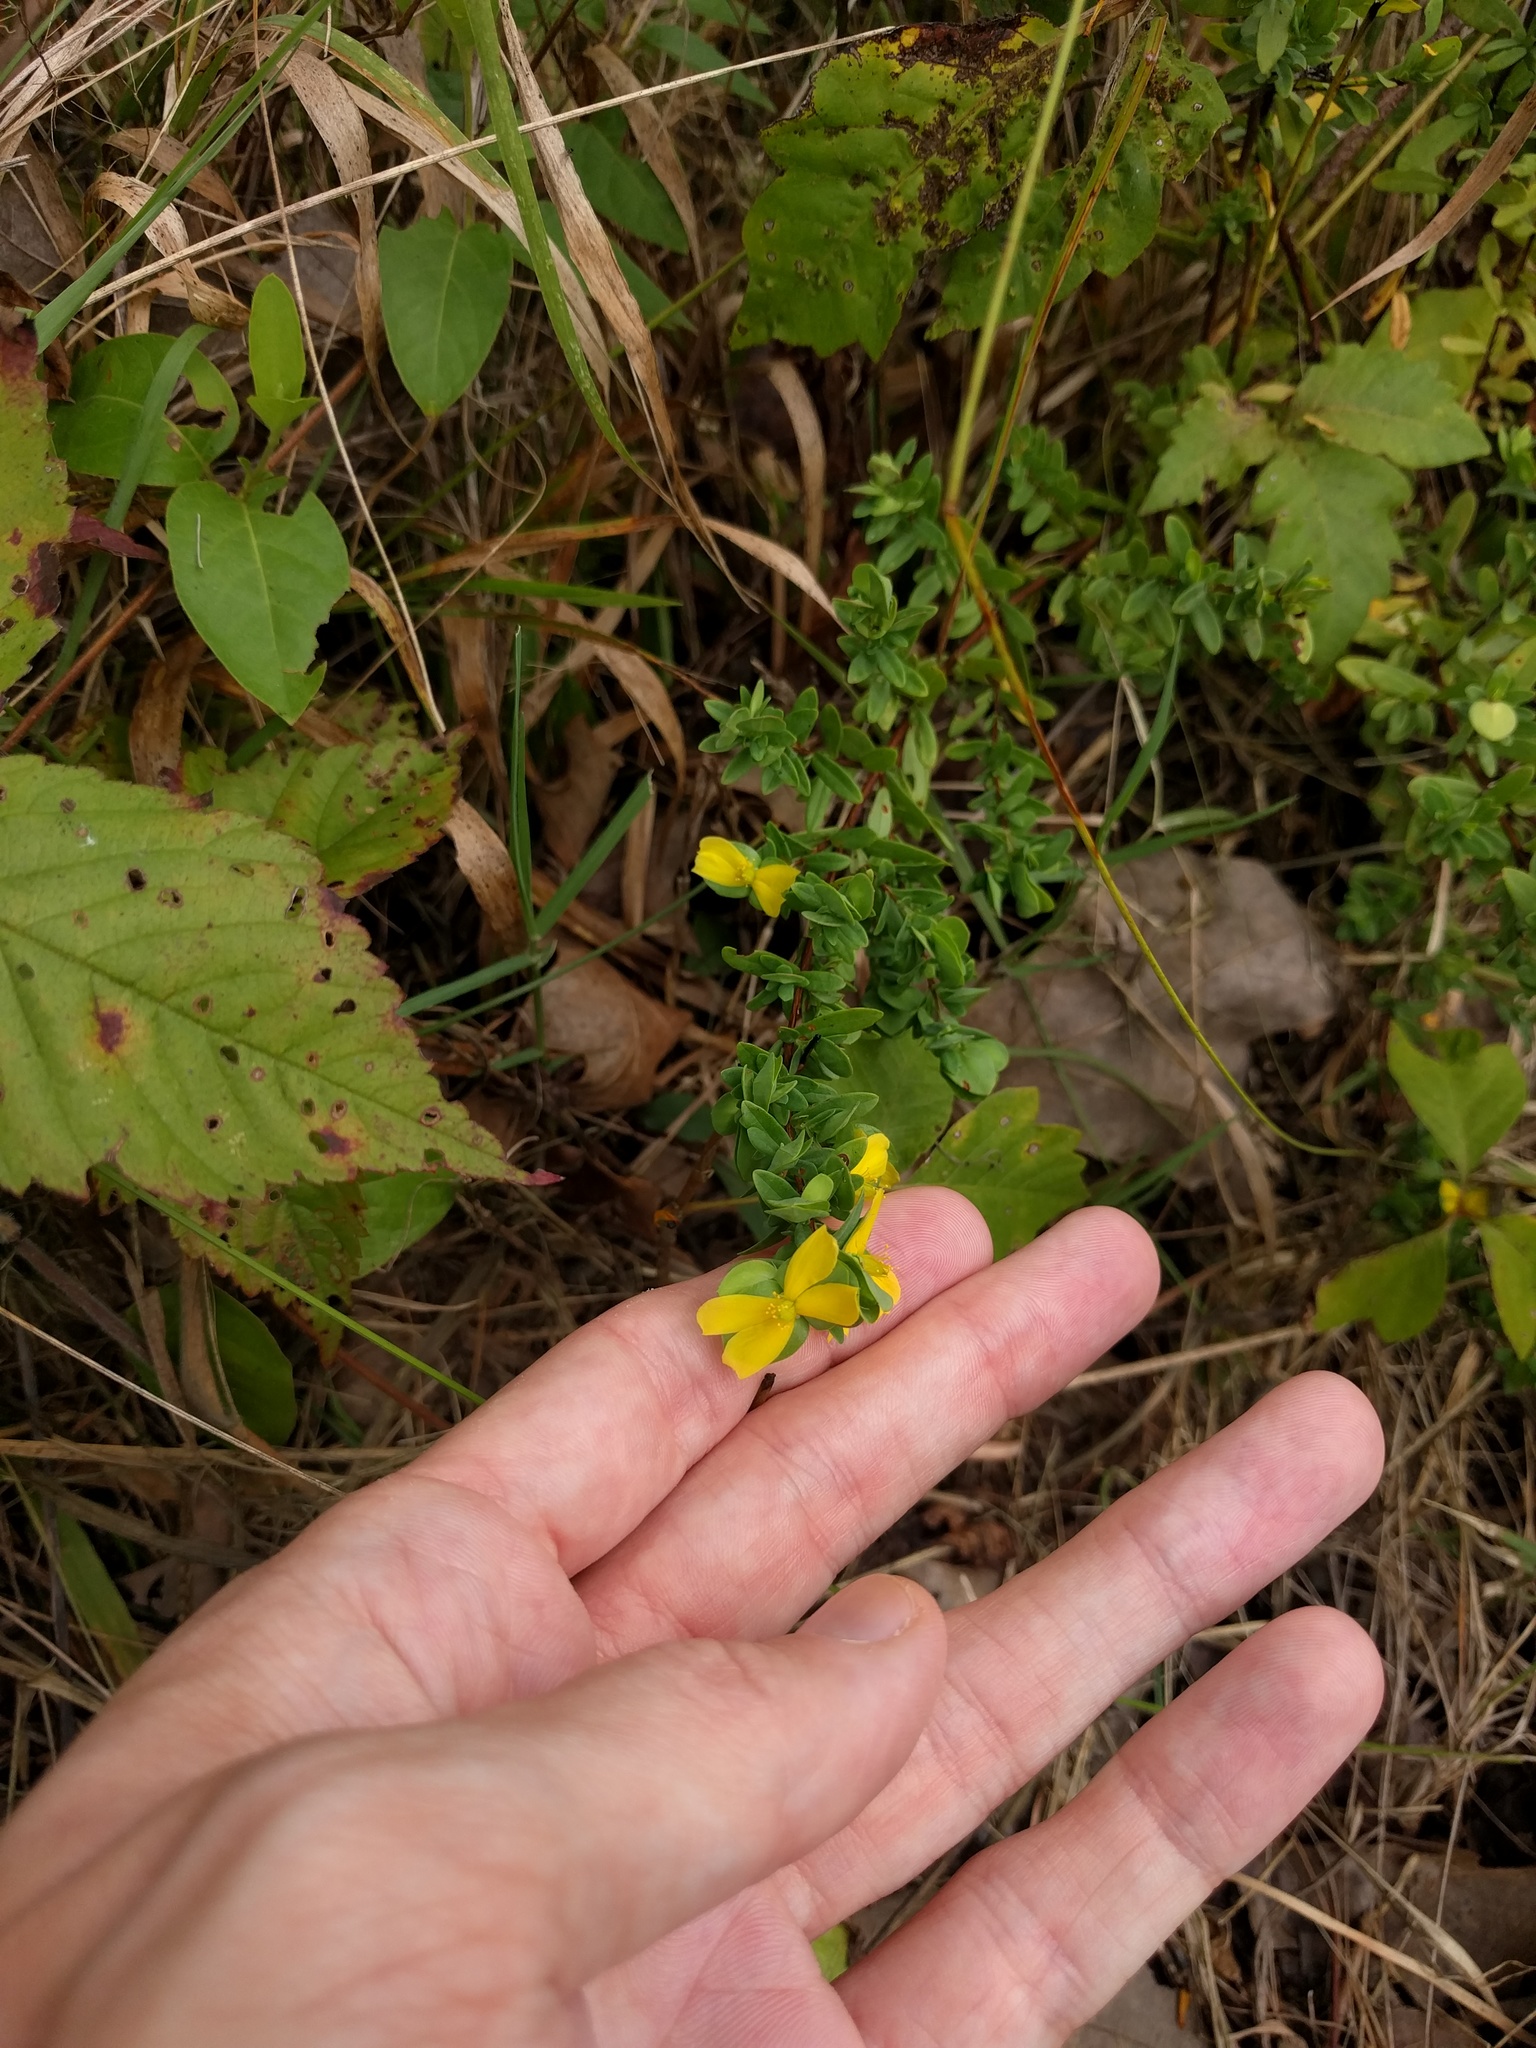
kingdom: Plantae
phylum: Tracheophyta
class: Magnoliopsida
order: Malpighiales
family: Hypericaceae
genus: Hypericum
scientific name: Hypericum hypericoides
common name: St. andrew's cross
